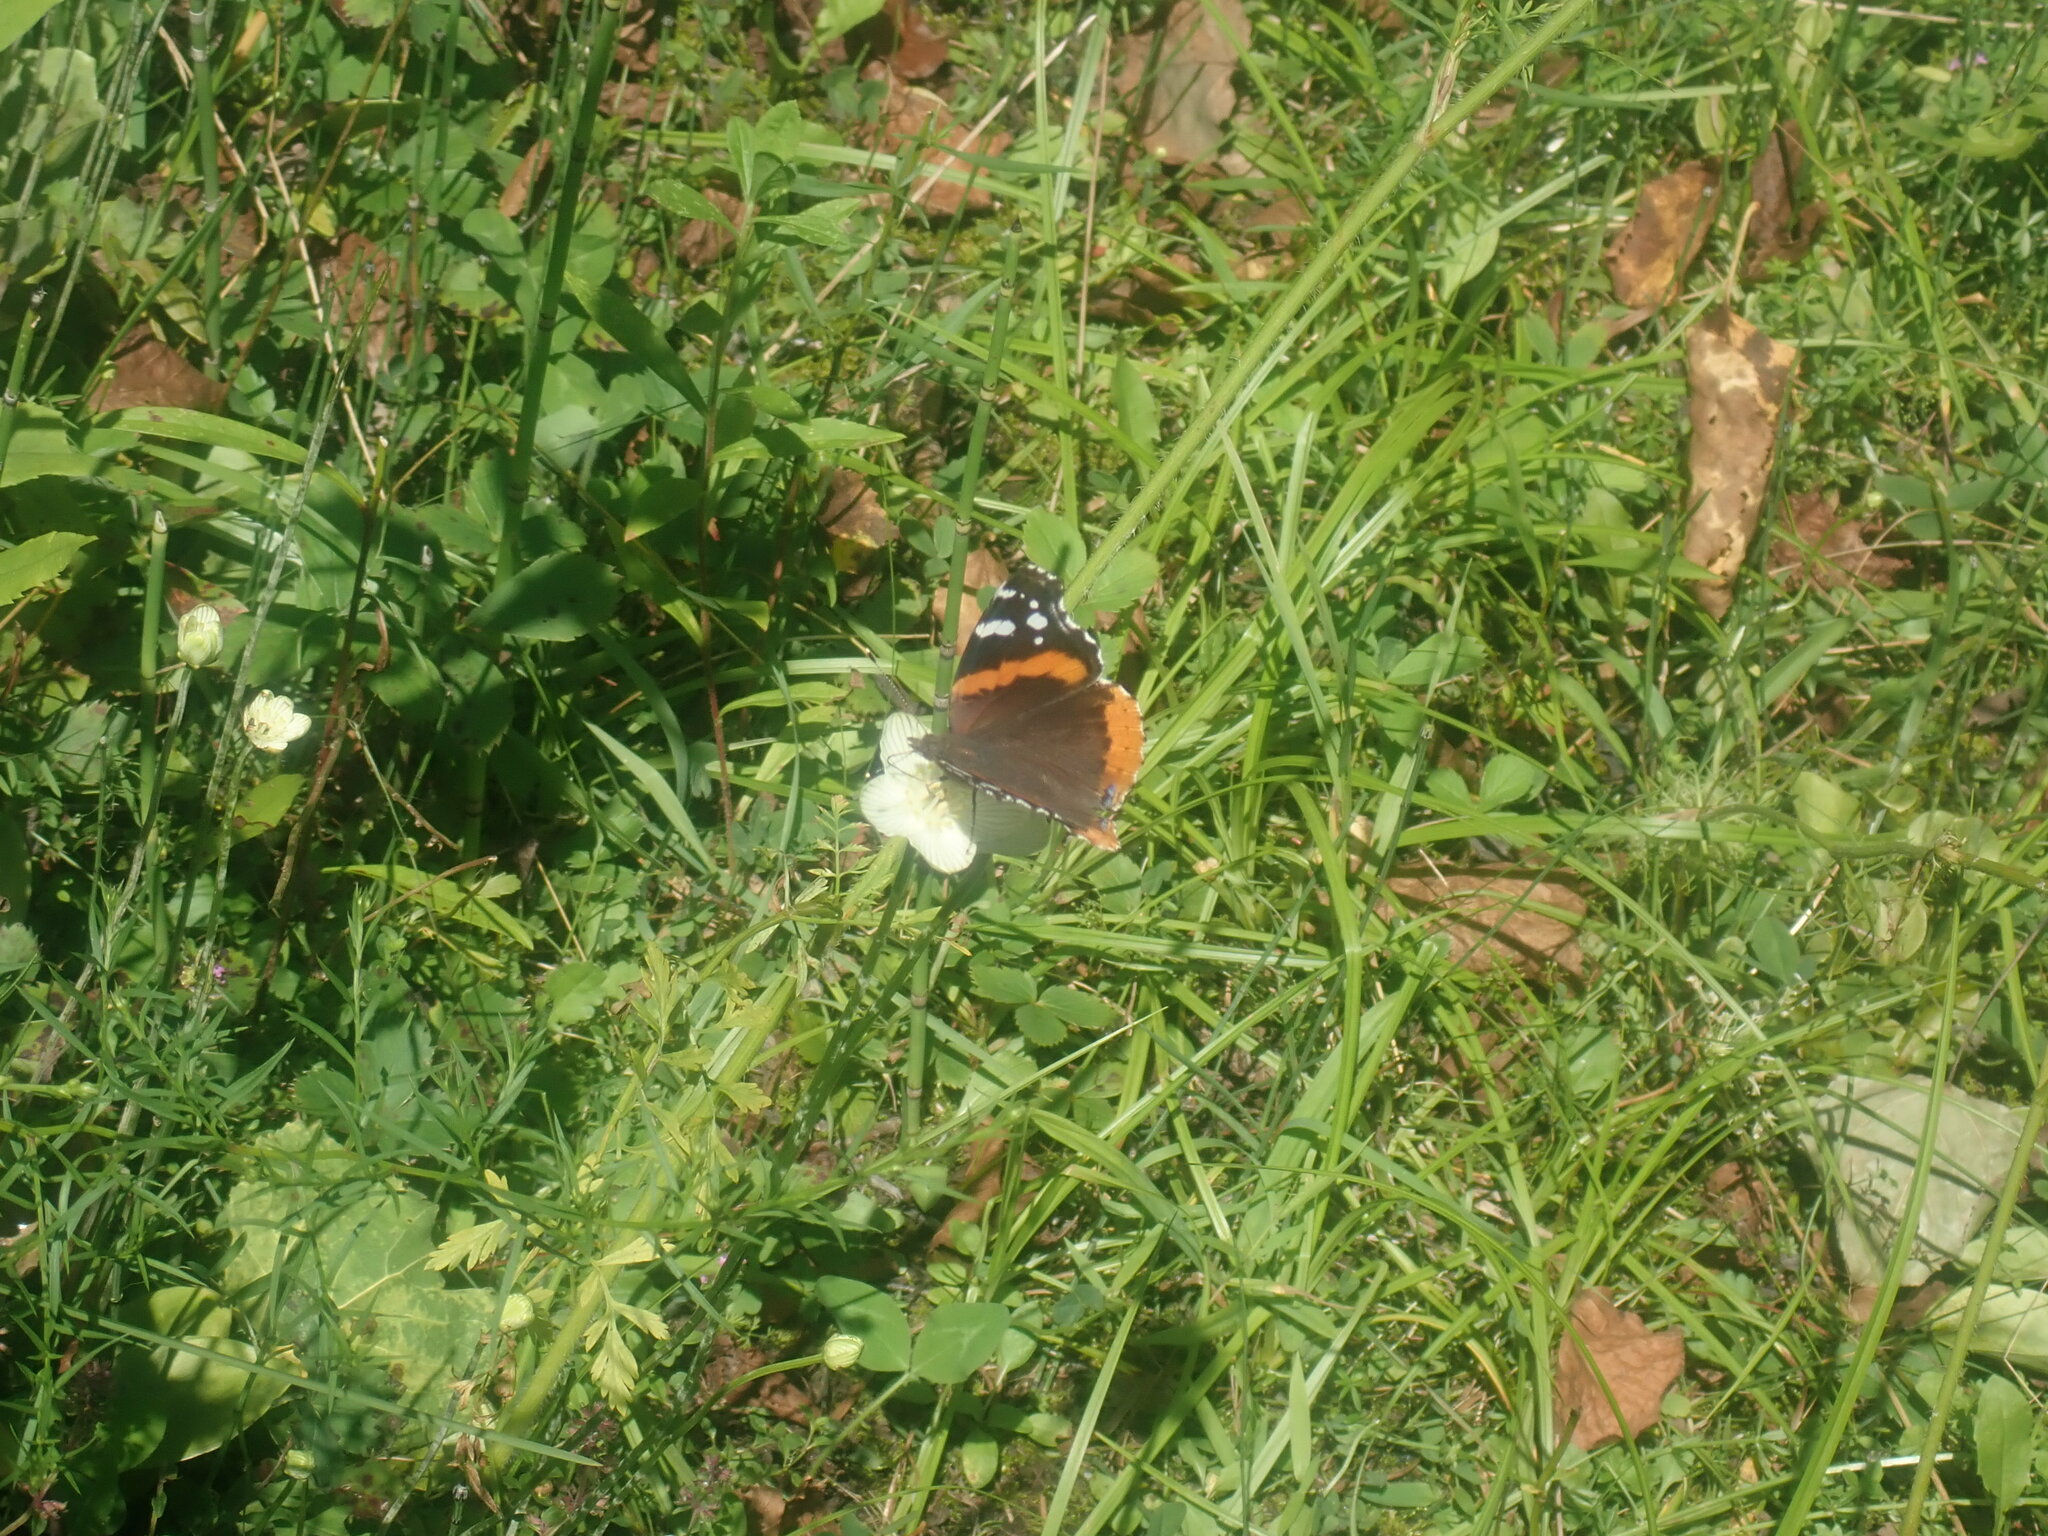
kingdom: Animalia
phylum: Arthropoda
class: Insecta
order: Lepidoptera
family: Nymphalidae
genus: Vanessa
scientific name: Vanessa atalanta
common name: Red admiral
